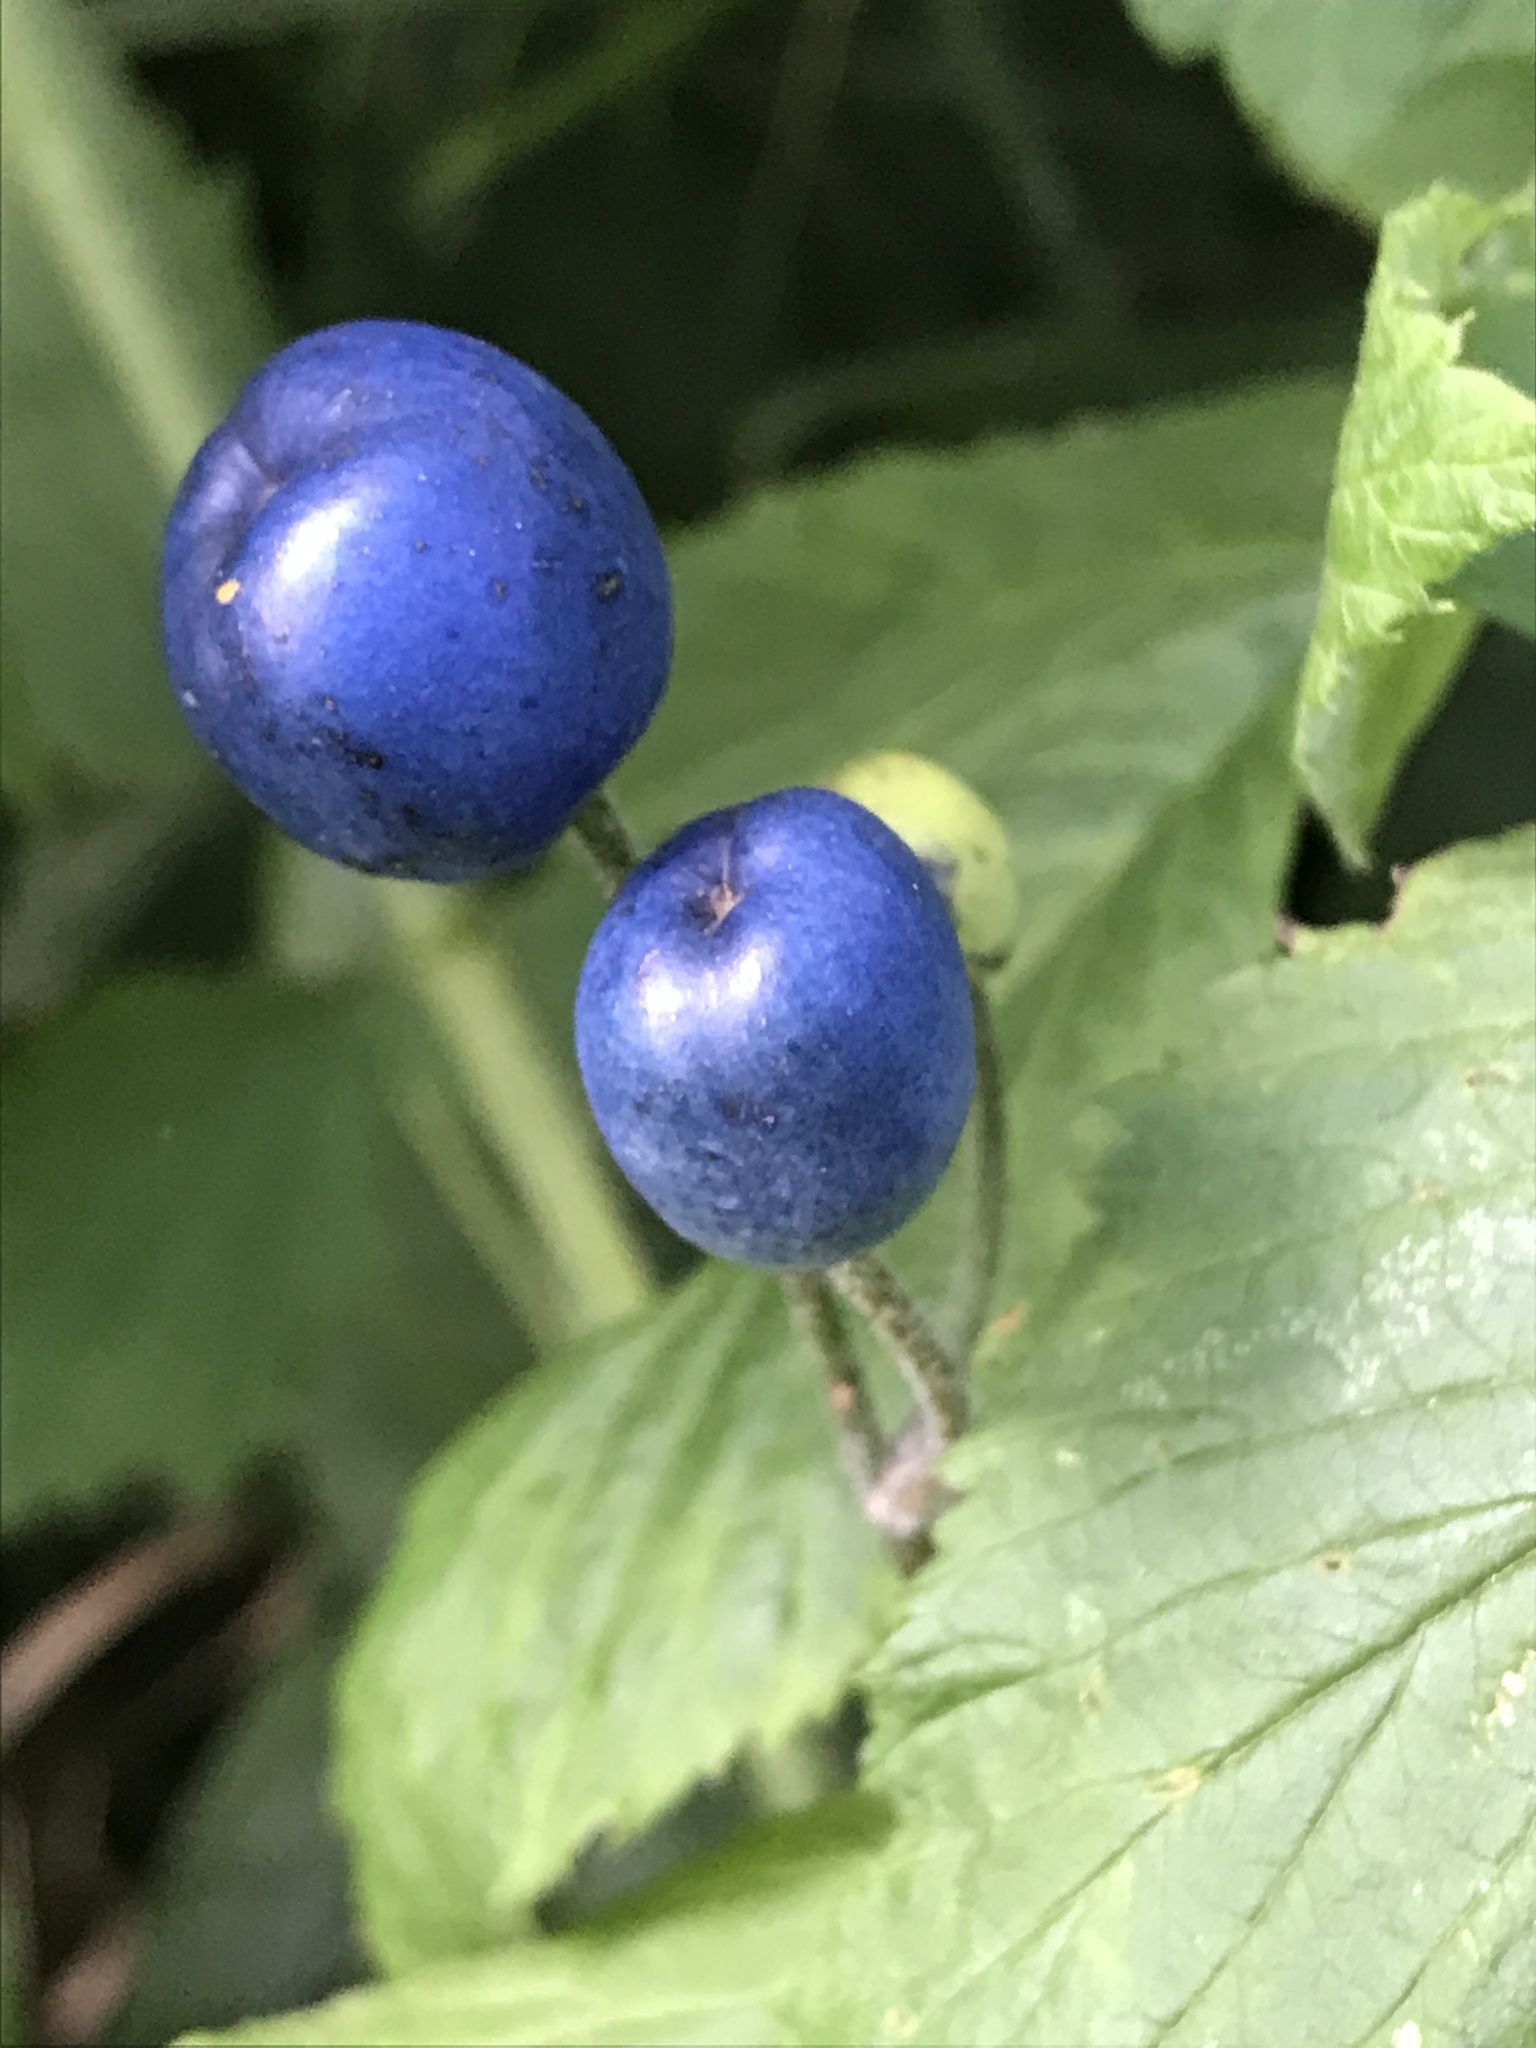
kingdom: Plantae
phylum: Tracheophyta
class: Liliopsida
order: Liliales
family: Liliaceae
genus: Clintonia
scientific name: Clintonia borealis
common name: Yellow clintonia
